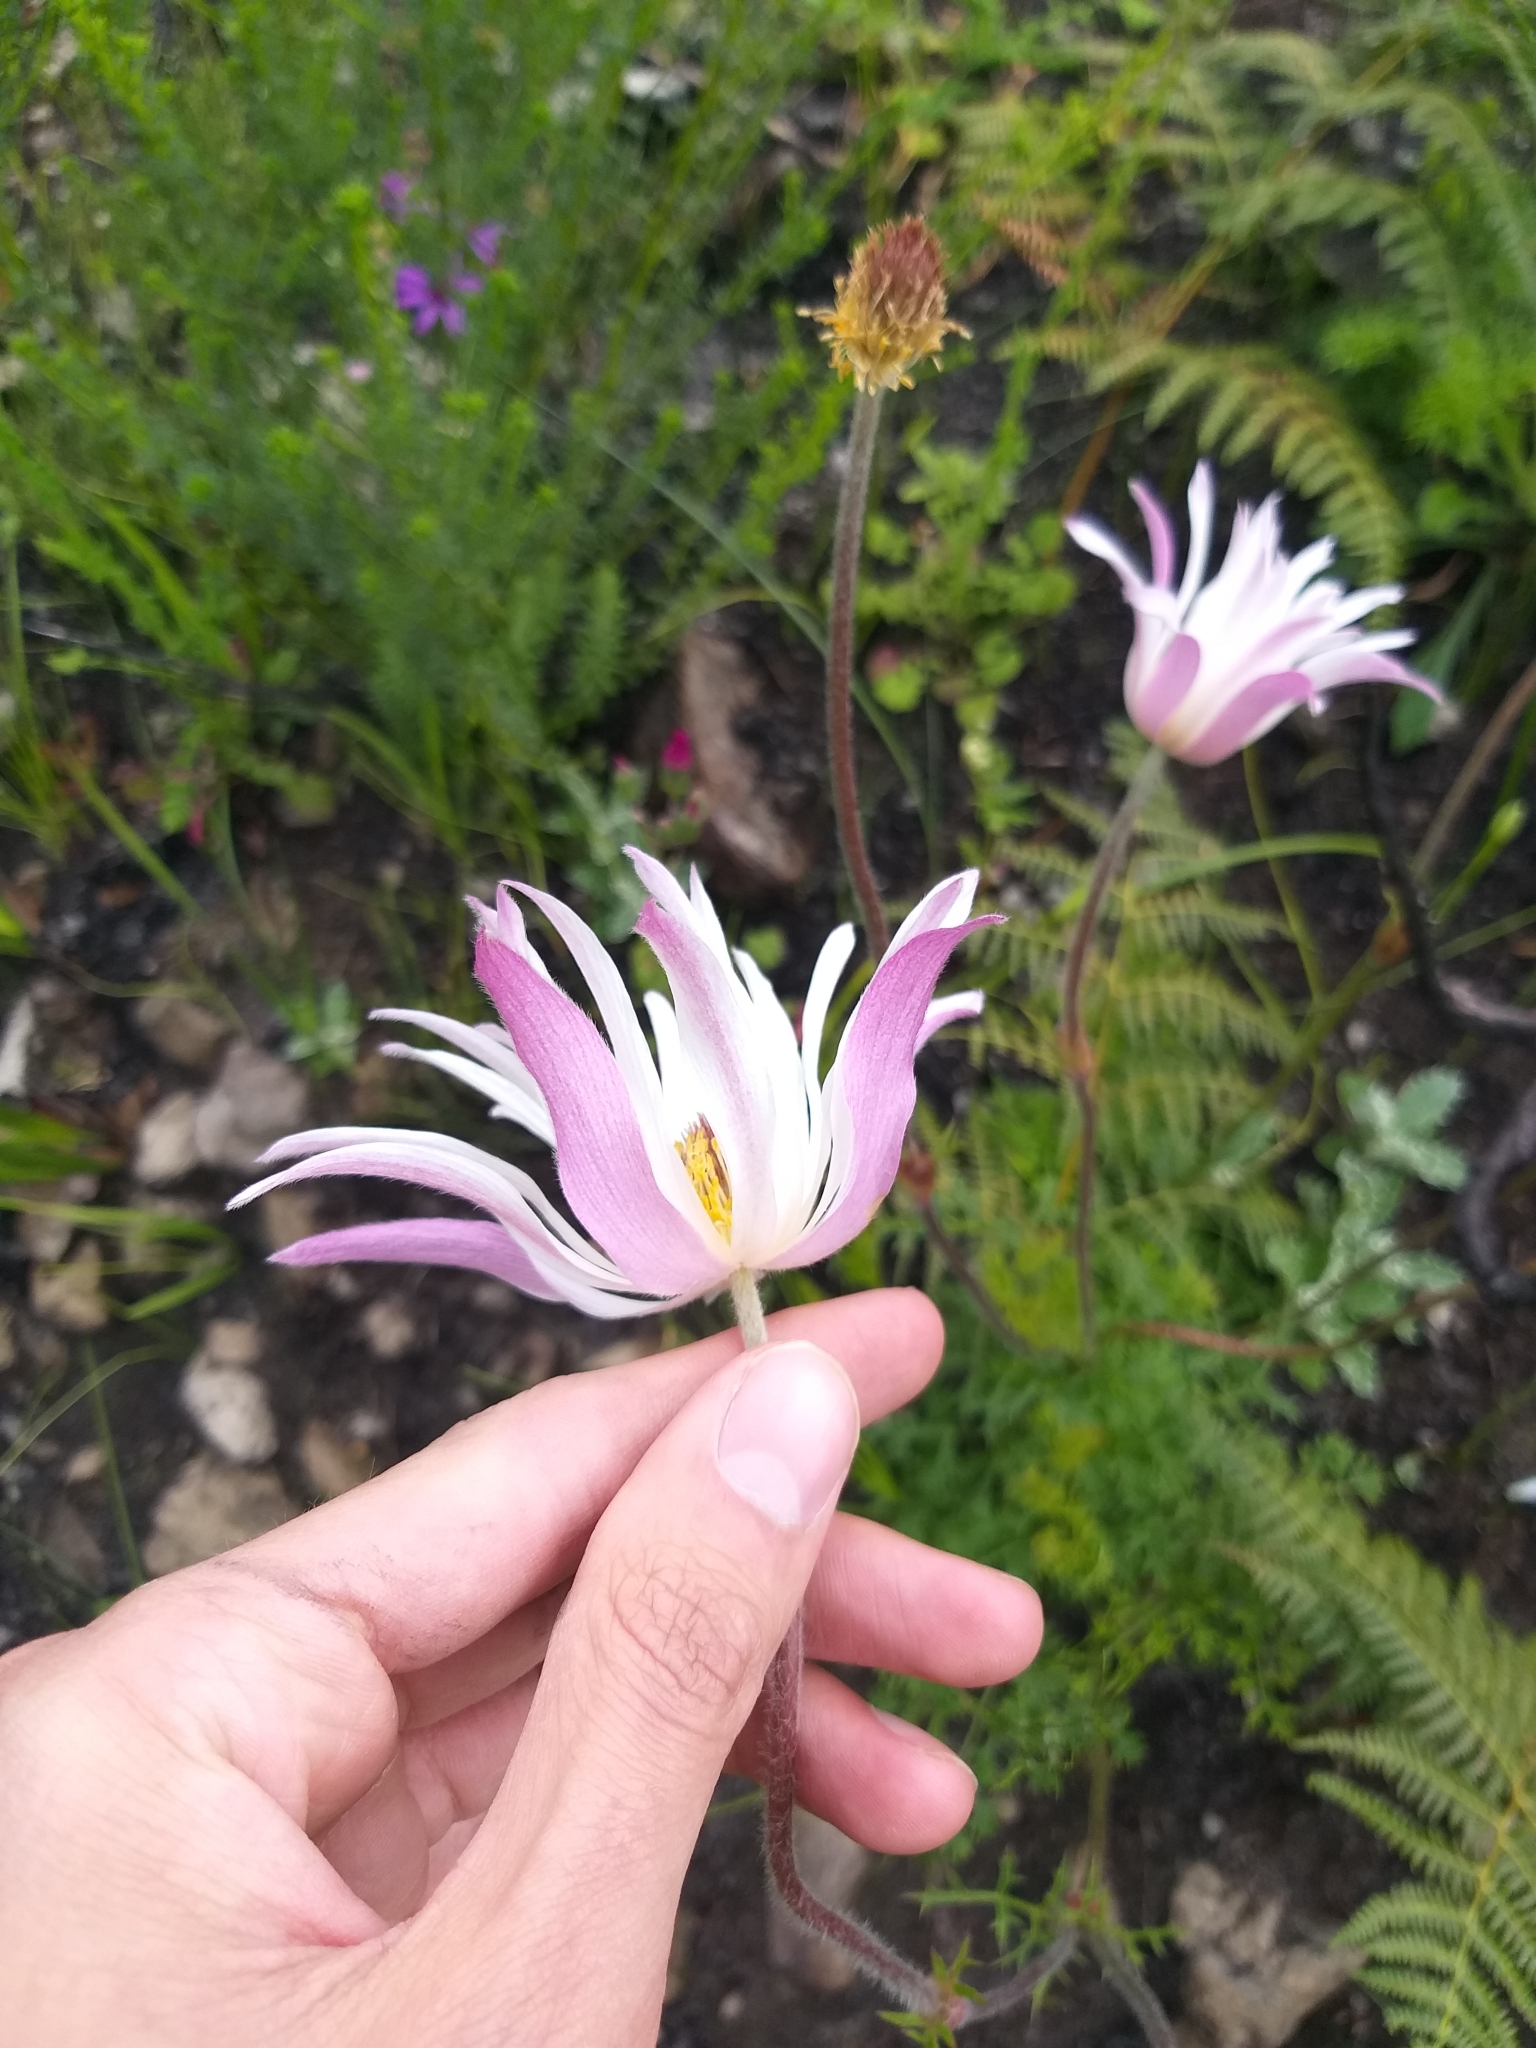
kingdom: Plantae
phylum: Tracheophyta
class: Magnoliopsida
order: Ranunculales
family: Ranunculaceae
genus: Knowltonia
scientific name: Knowltonia tenuifolia
